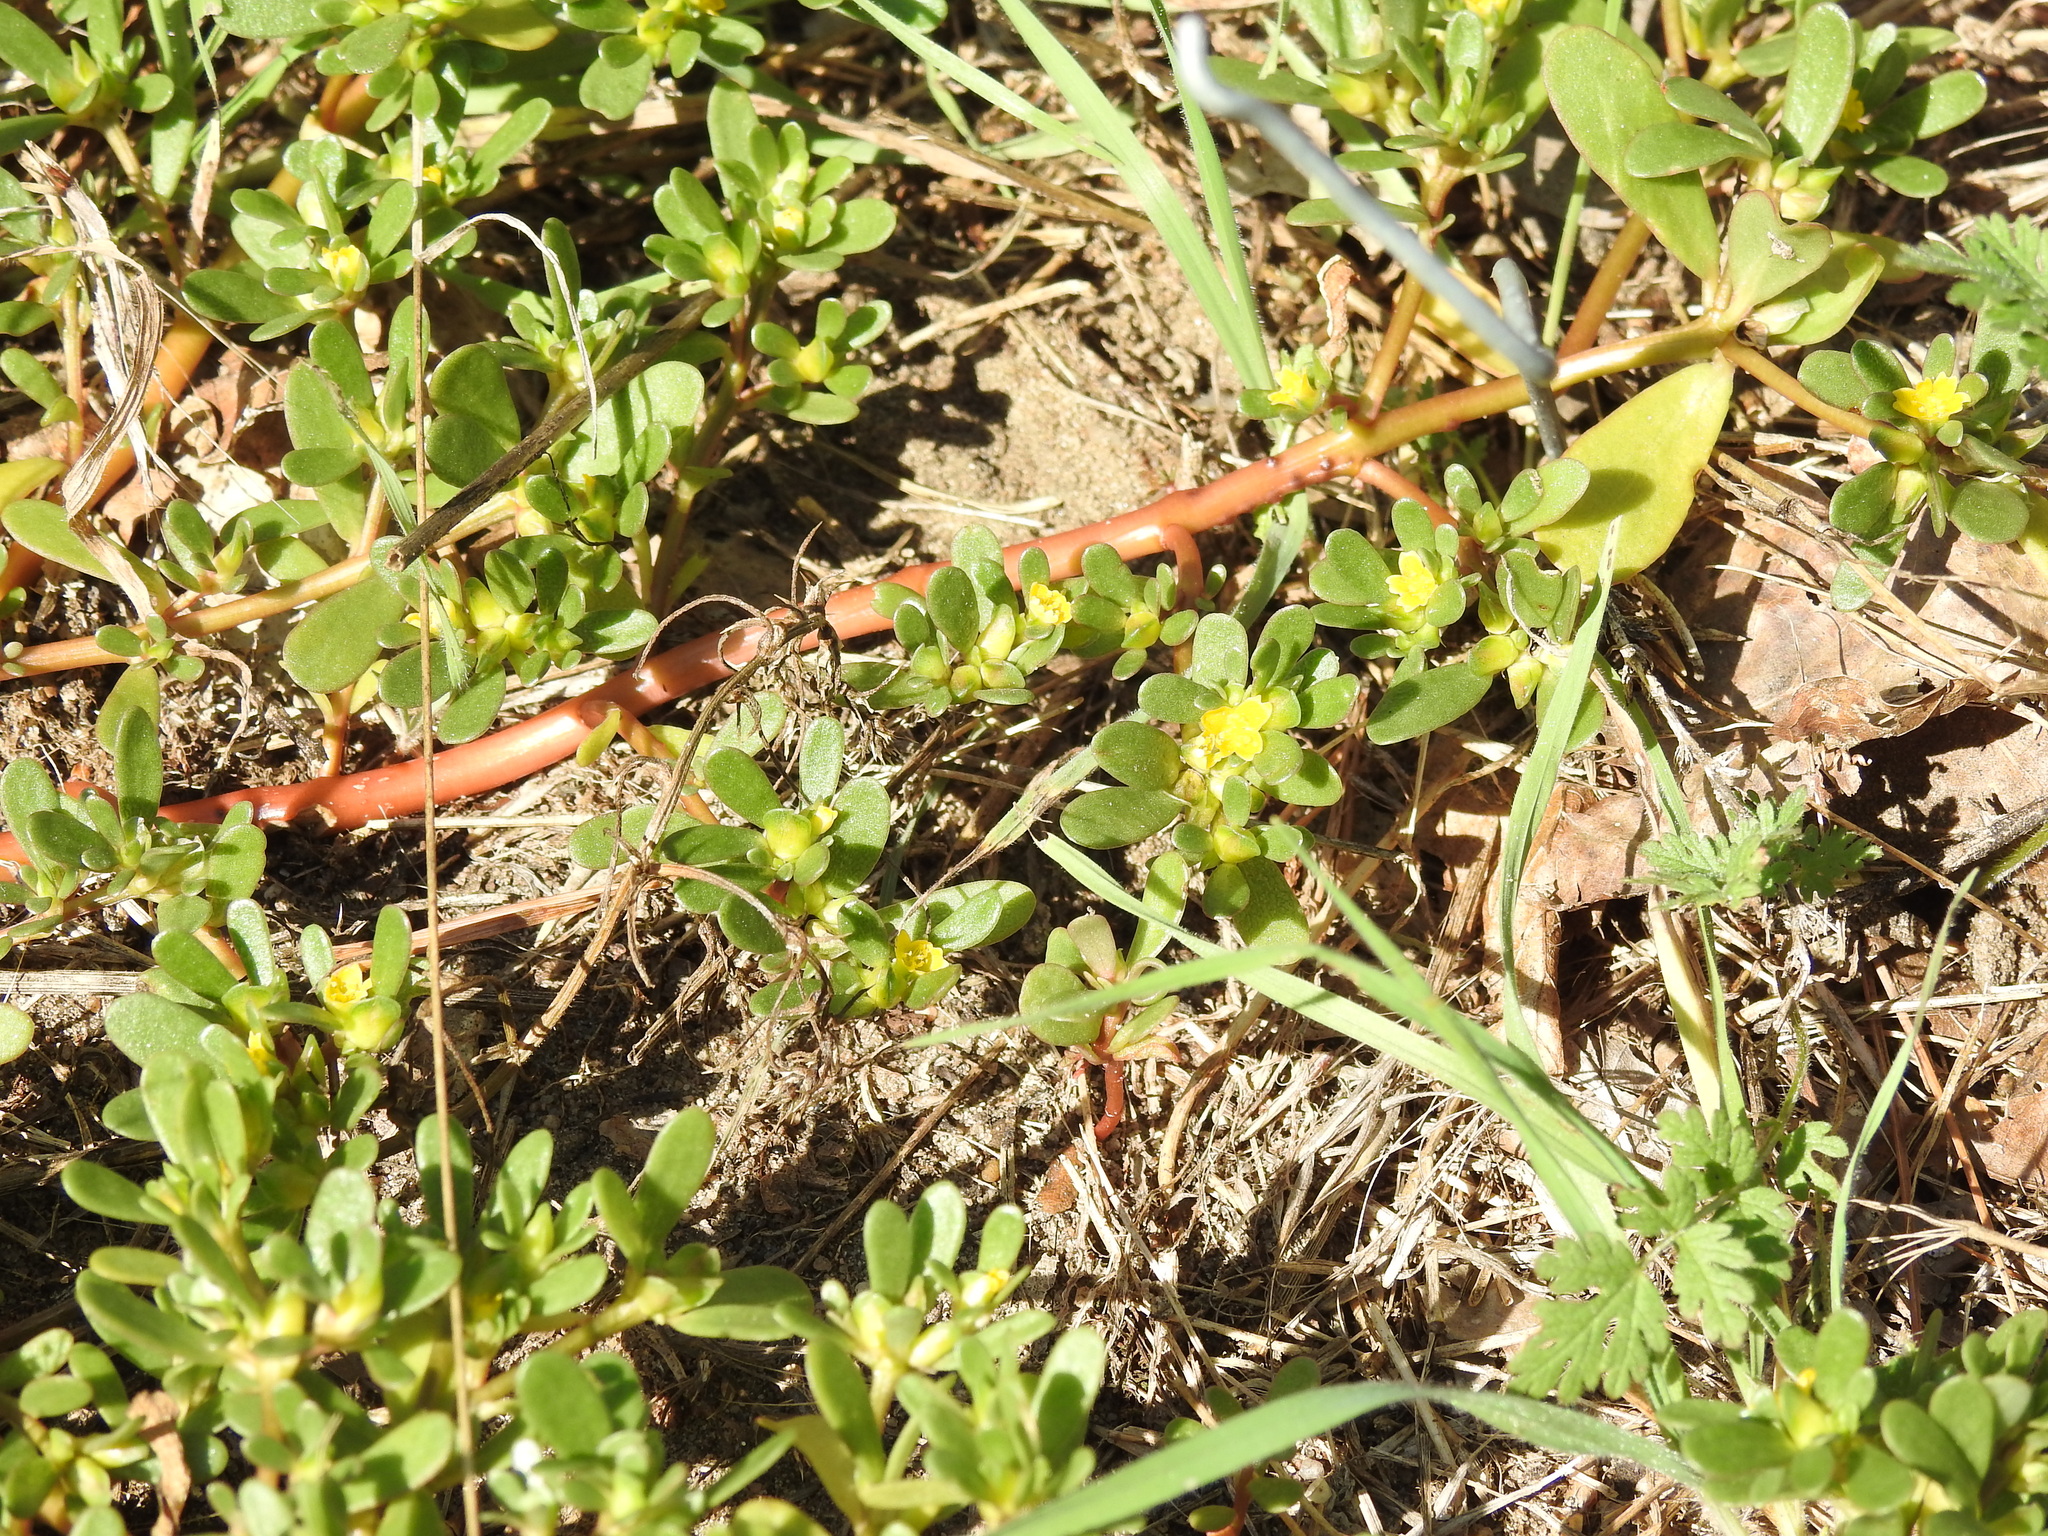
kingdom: Plantae
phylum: Tracheophyta
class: Magnoliopsida
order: Caryophyllales
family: Portulacaceae
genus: Portulaca
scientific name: Portulaca oleracea
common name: Common purslane
